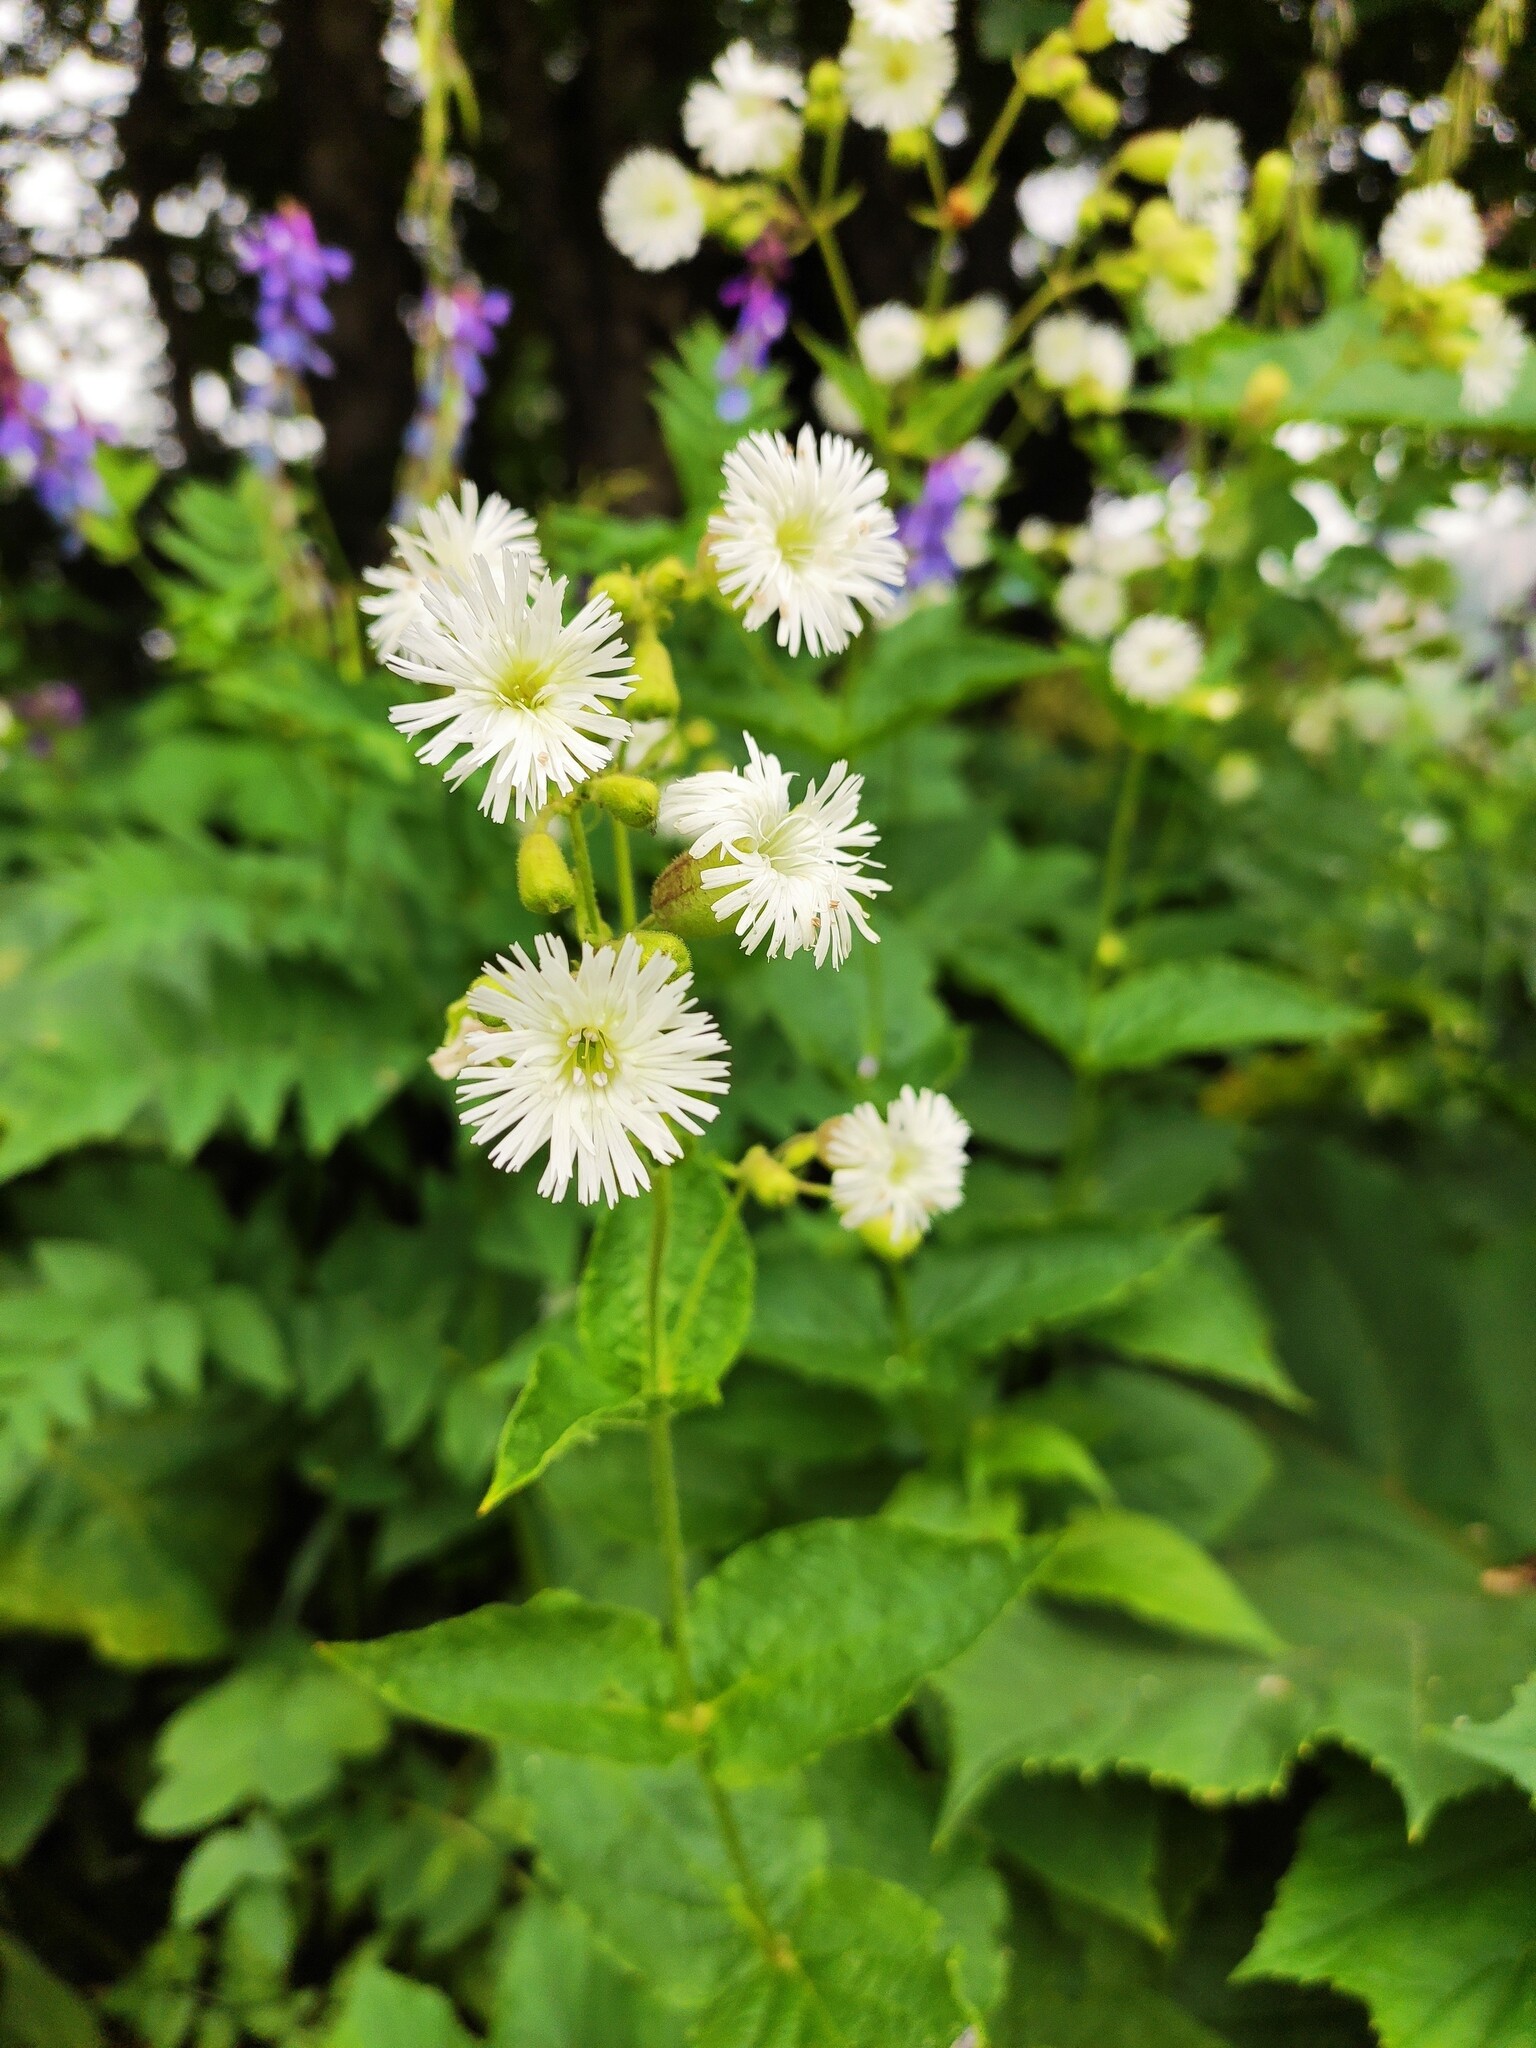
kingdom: Plantae
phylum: Tracheophyta
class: Magnoliopsida
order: Caryophyllales
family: Caryophyllaceae
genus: Silene
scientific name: Silene
